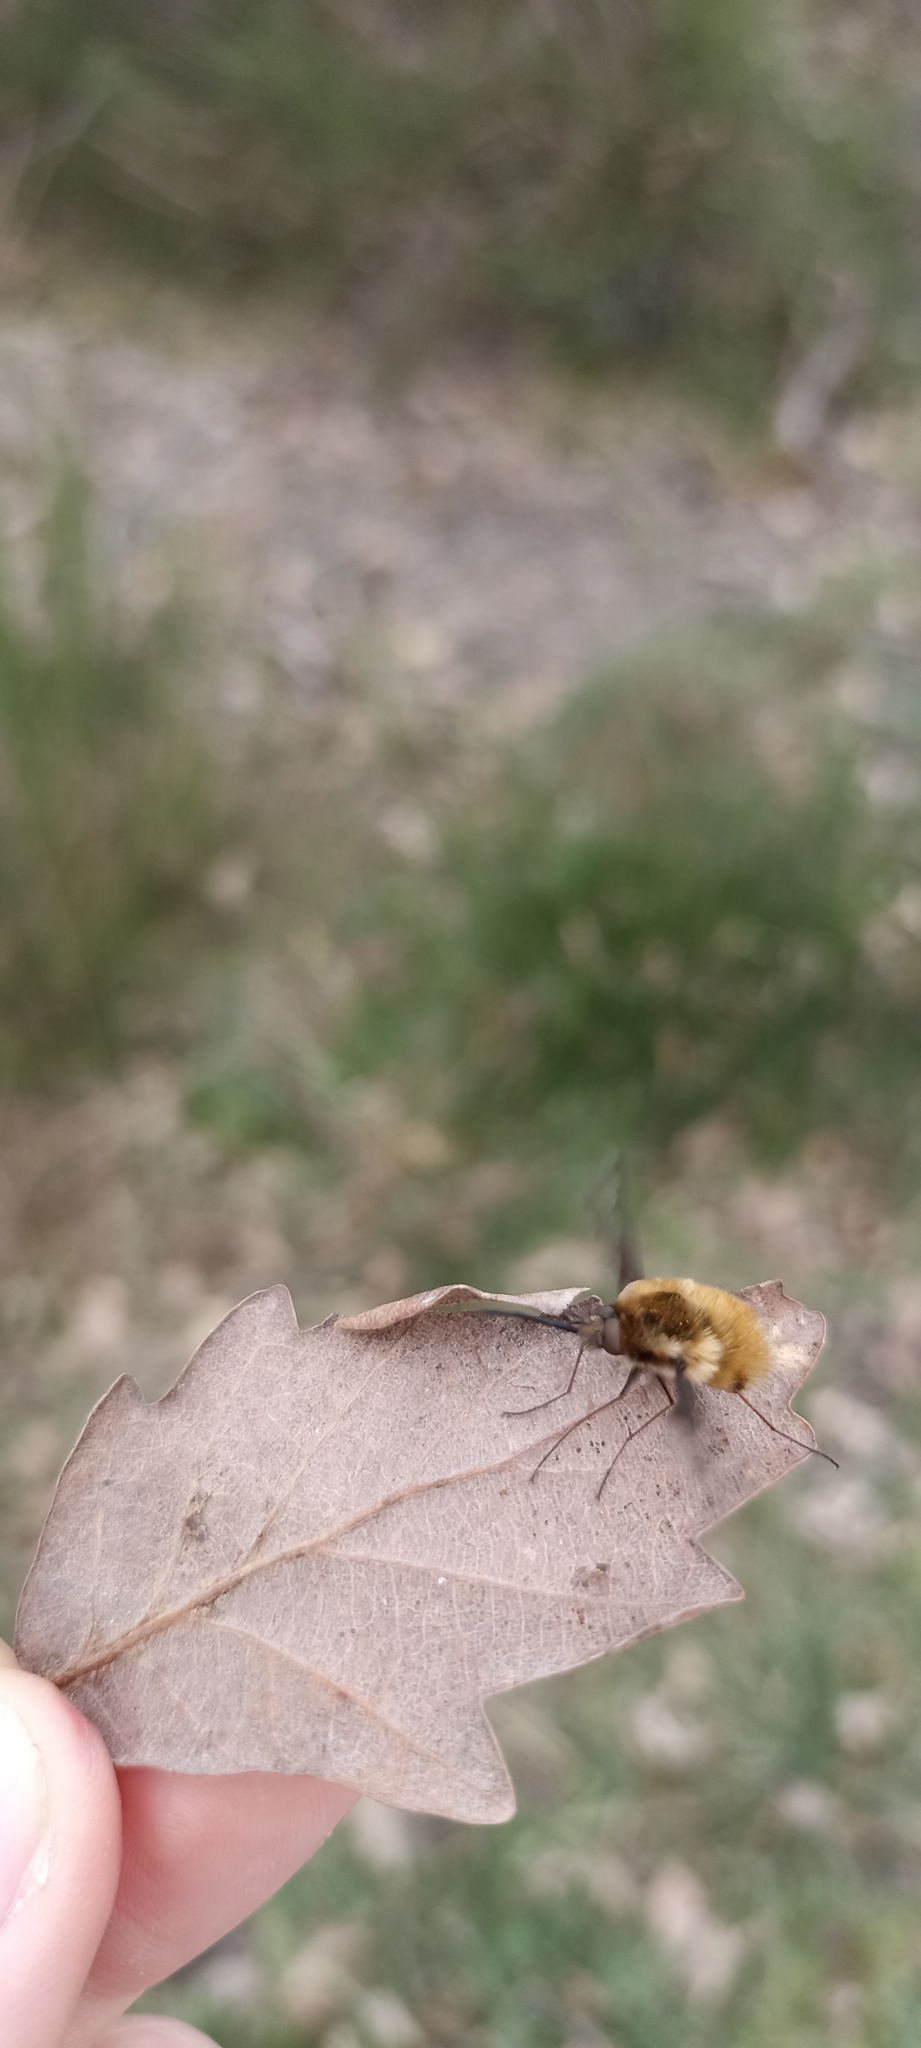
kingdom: Animalia
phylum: Arthropoda
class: Insecta
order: Diptera
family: Bombyliidae
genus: Bombylius
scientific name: Bombylius major
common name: Bee fly
